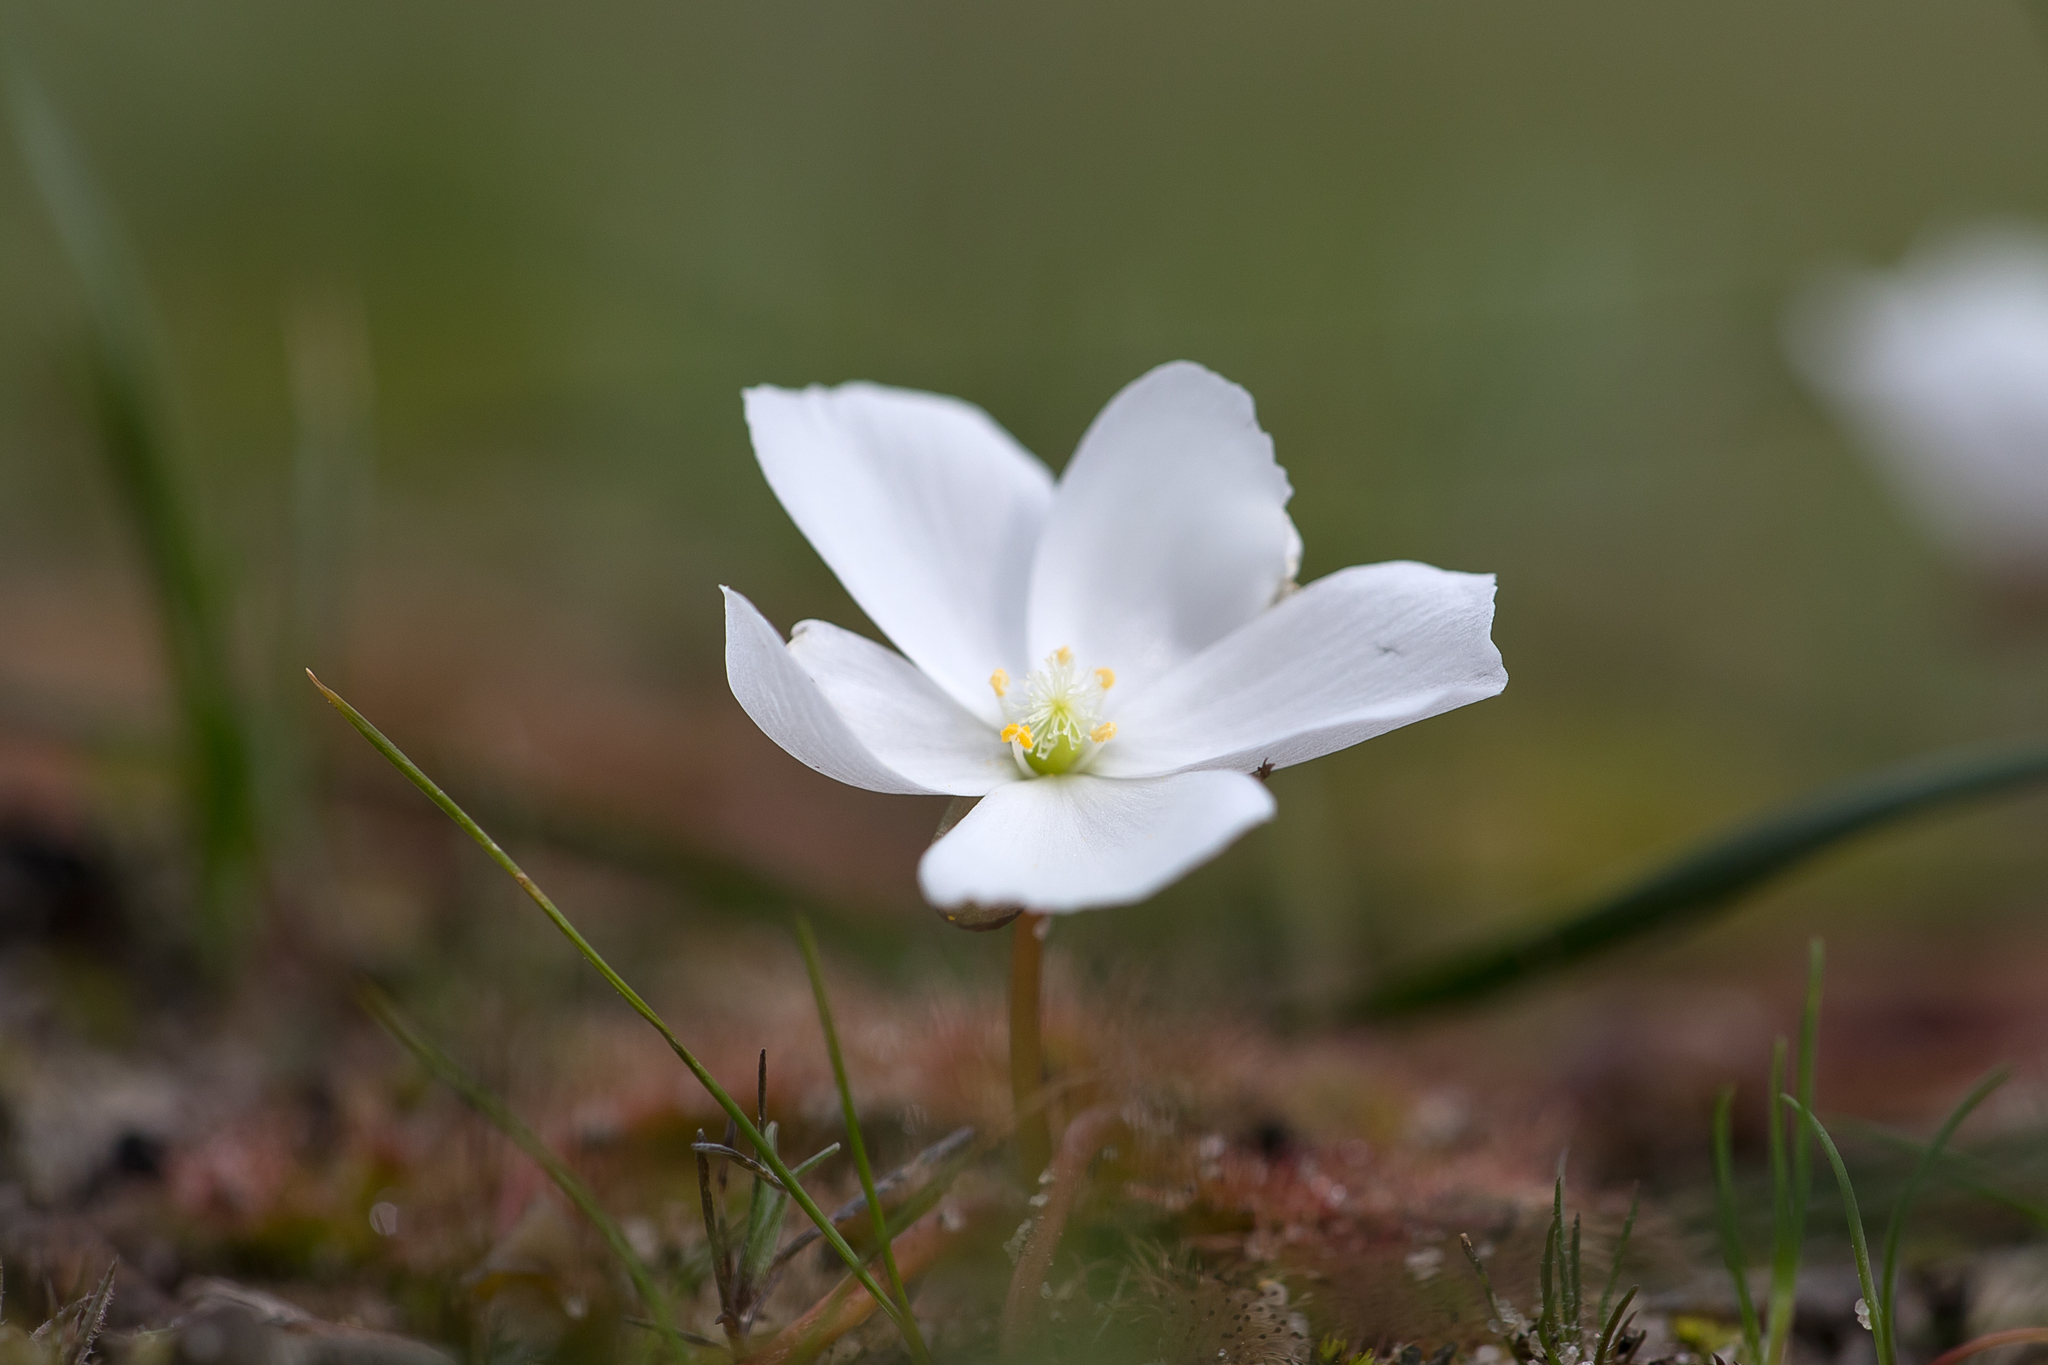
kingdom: Plantae
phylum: Tracheophyta
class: Magnoliopsida
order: Caryophyllales
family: Droseraceae
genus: Drosera
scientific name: Drosera whittakeri
